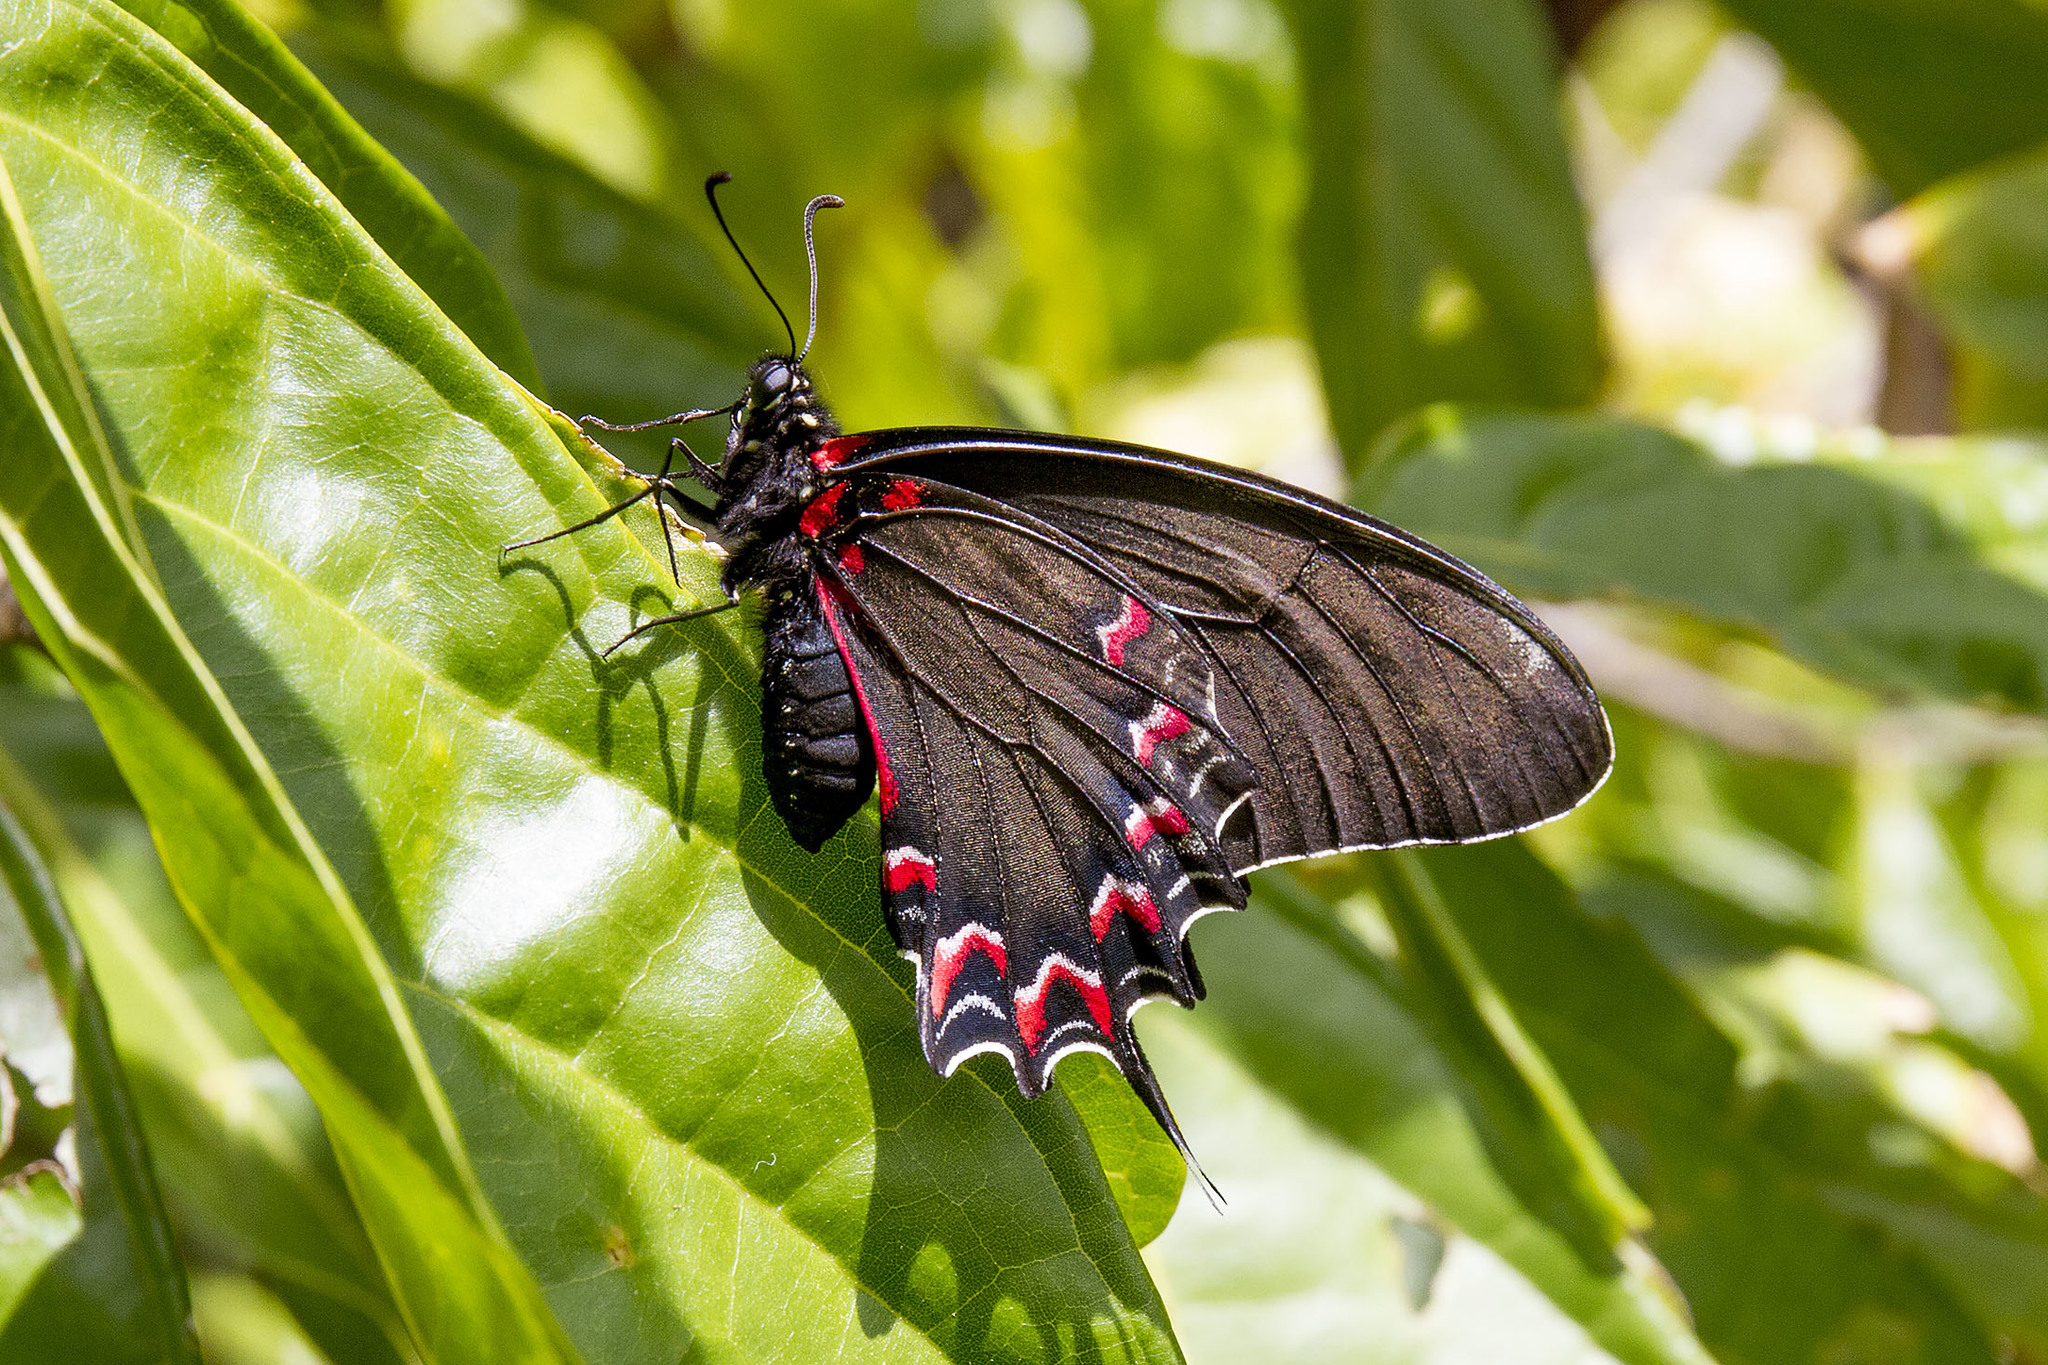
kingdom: Animalia
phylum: Arthropoda
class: Insecta
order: Lepidoptera
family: Papilionidae
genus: Mimoides
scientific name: Mimoides thymbraeus
